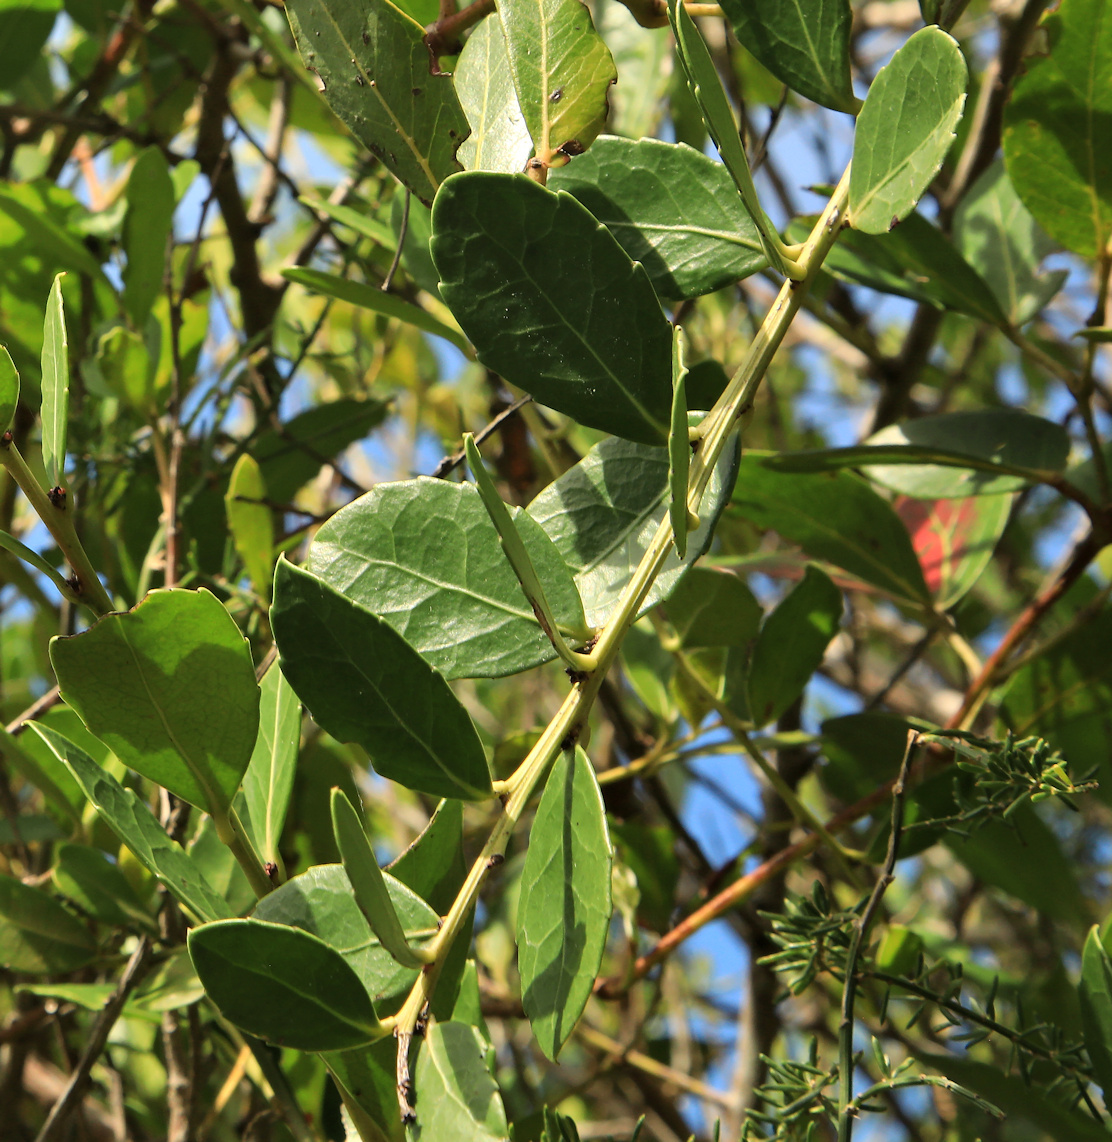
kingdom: Plantae
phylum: Tracheophyta
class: Magnoliopsida
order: Celastrales
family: Celastraceae
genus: Gymnosporia
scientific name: Gymnosporia procumbens
